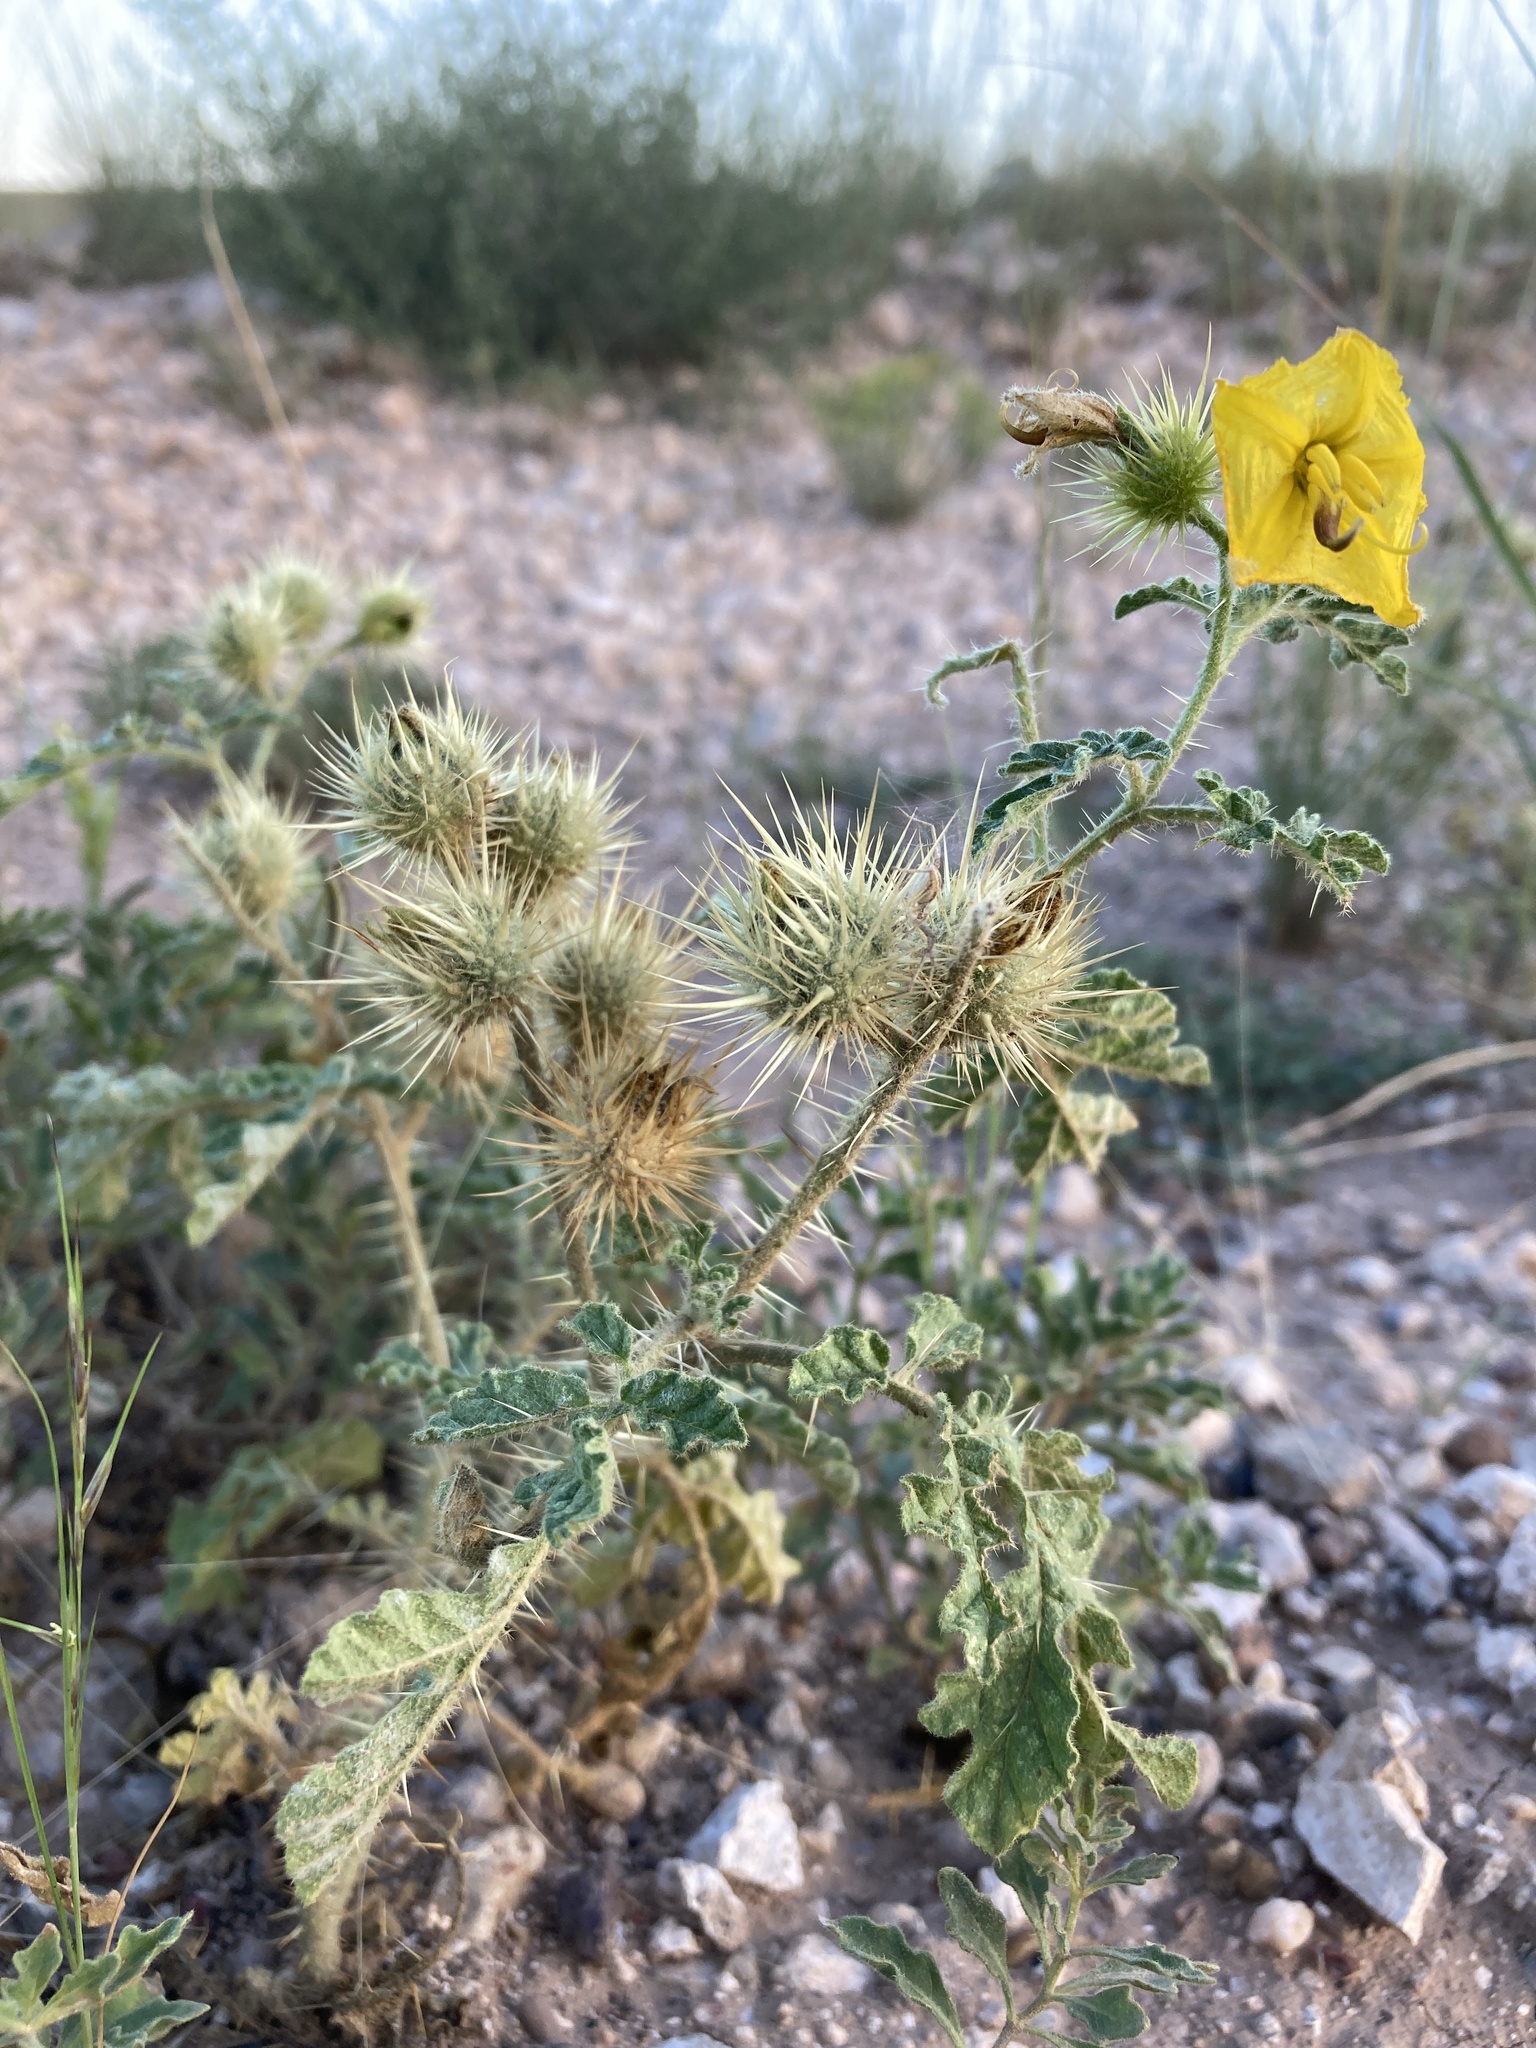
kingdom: Plantae
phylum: Tracheophyta
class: Magnoliopsida
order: Solanales
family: Solanaceae
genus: Solanum
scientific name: Solanum angustifolium
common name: Buffalobur nightshade
